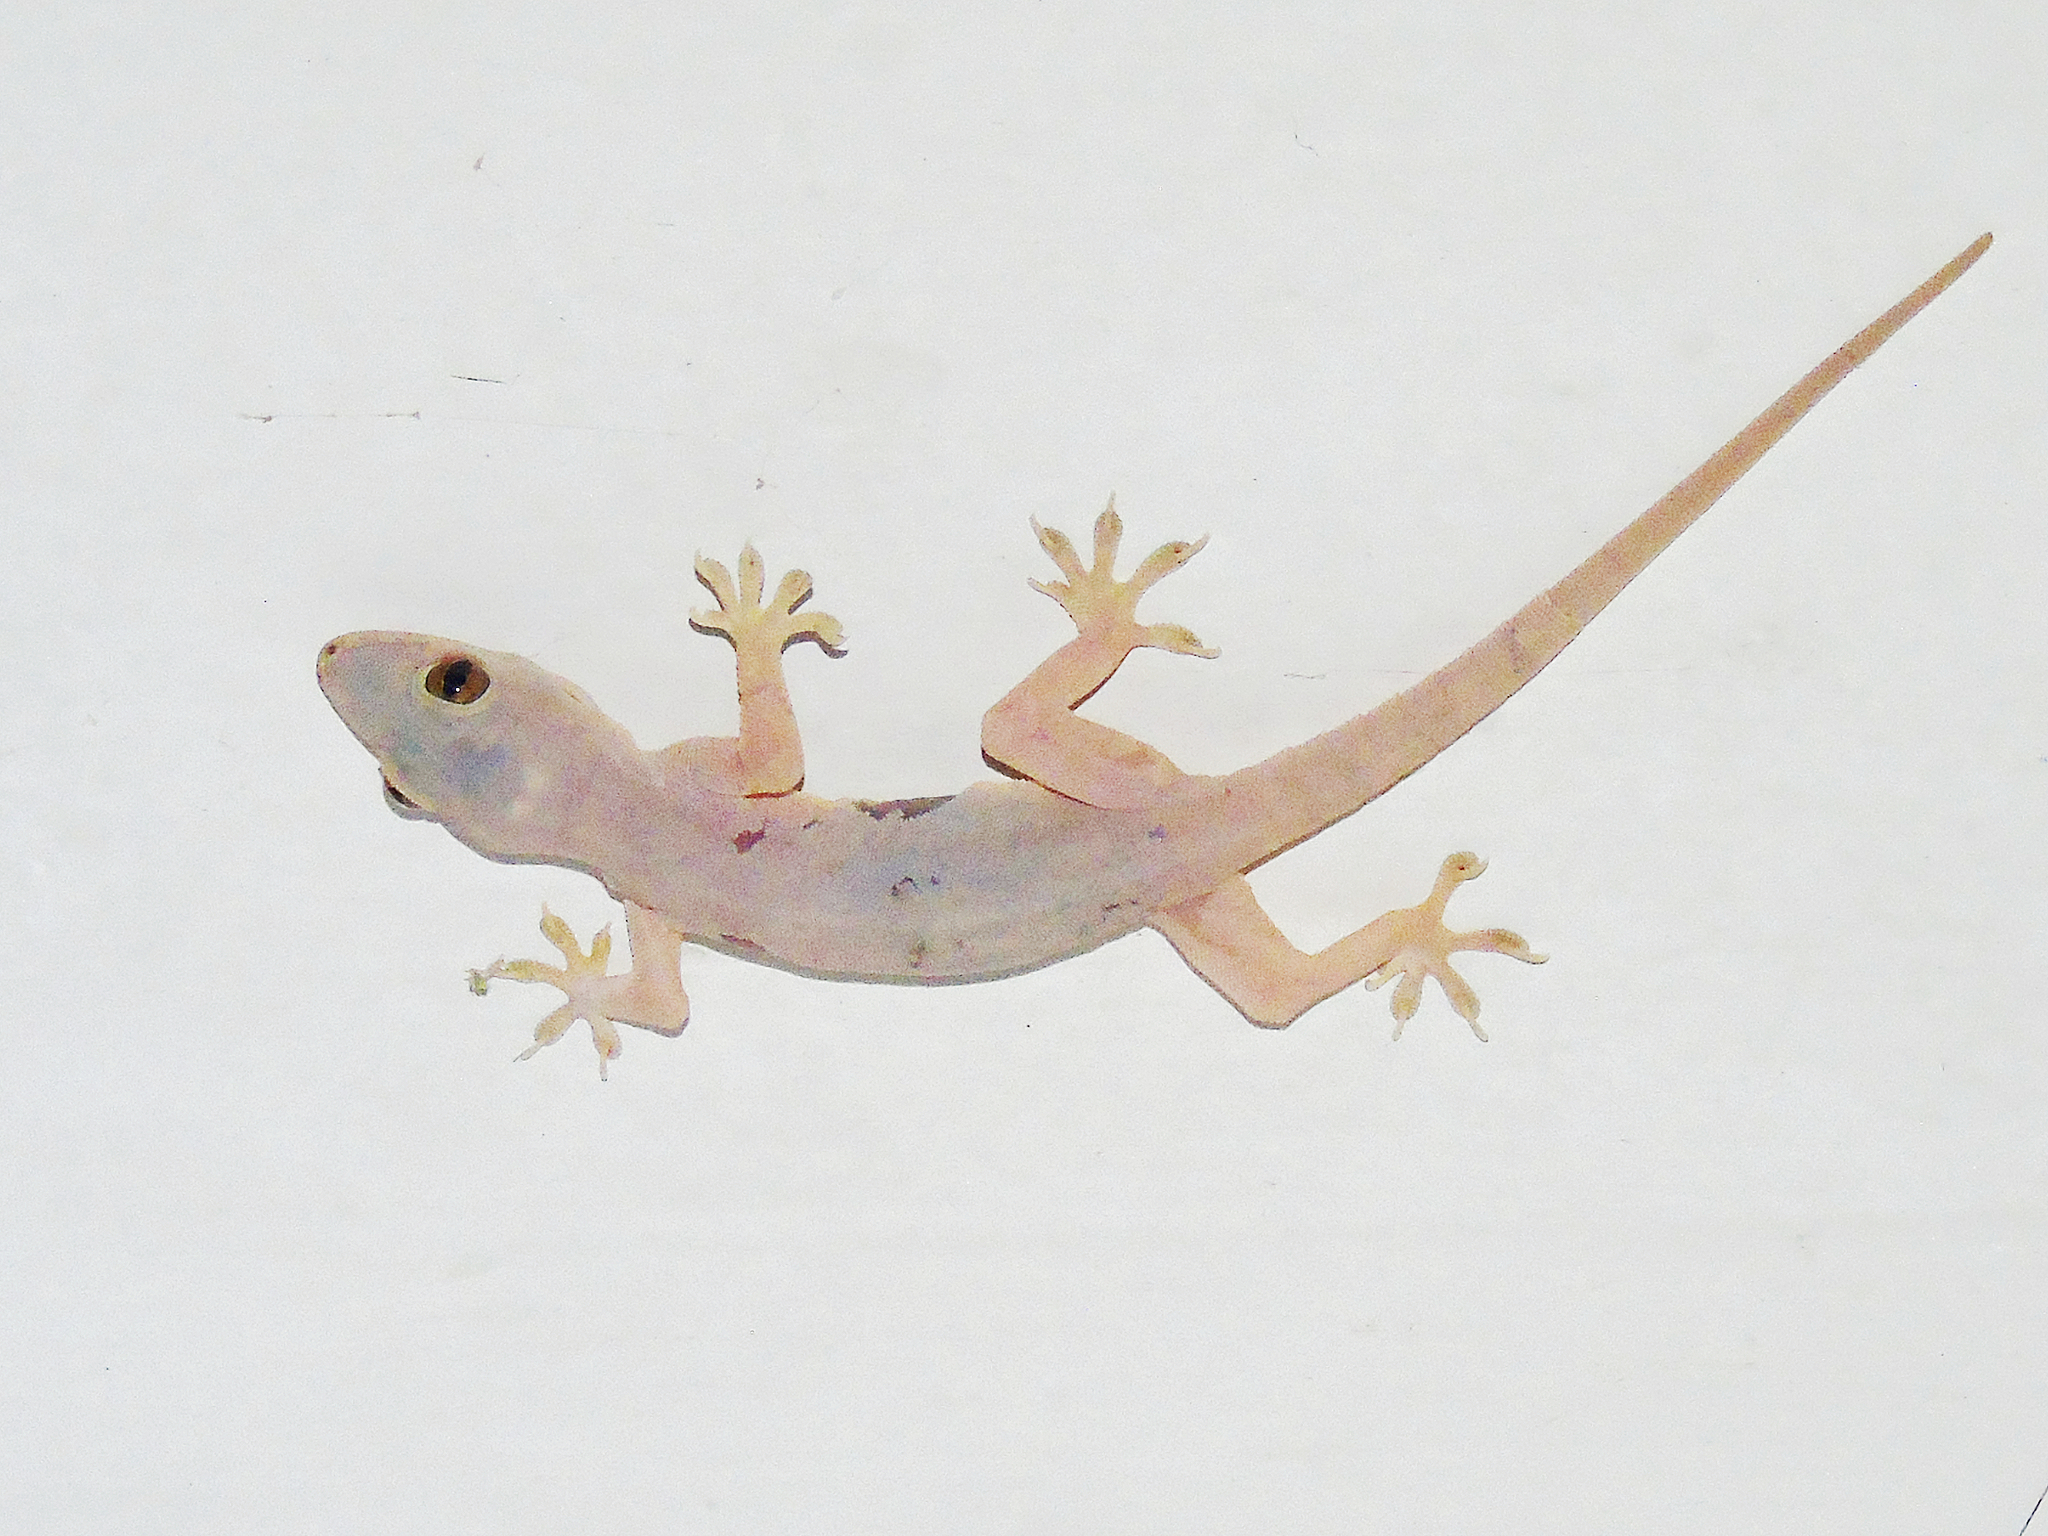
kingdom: Animalia
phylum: Chordata
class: Squamata
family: Gekkonidae
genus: Hemidactylus
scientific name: Hemidactylus flaviviridis
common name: Northern house gecko
